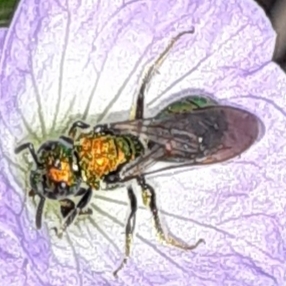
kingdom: Animalia
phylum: Arthropoda
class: Insecta
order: Hymenoptera
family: Halictidae
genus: Augochlora
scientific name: Augochlora pura
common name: Pure green sweat bee
